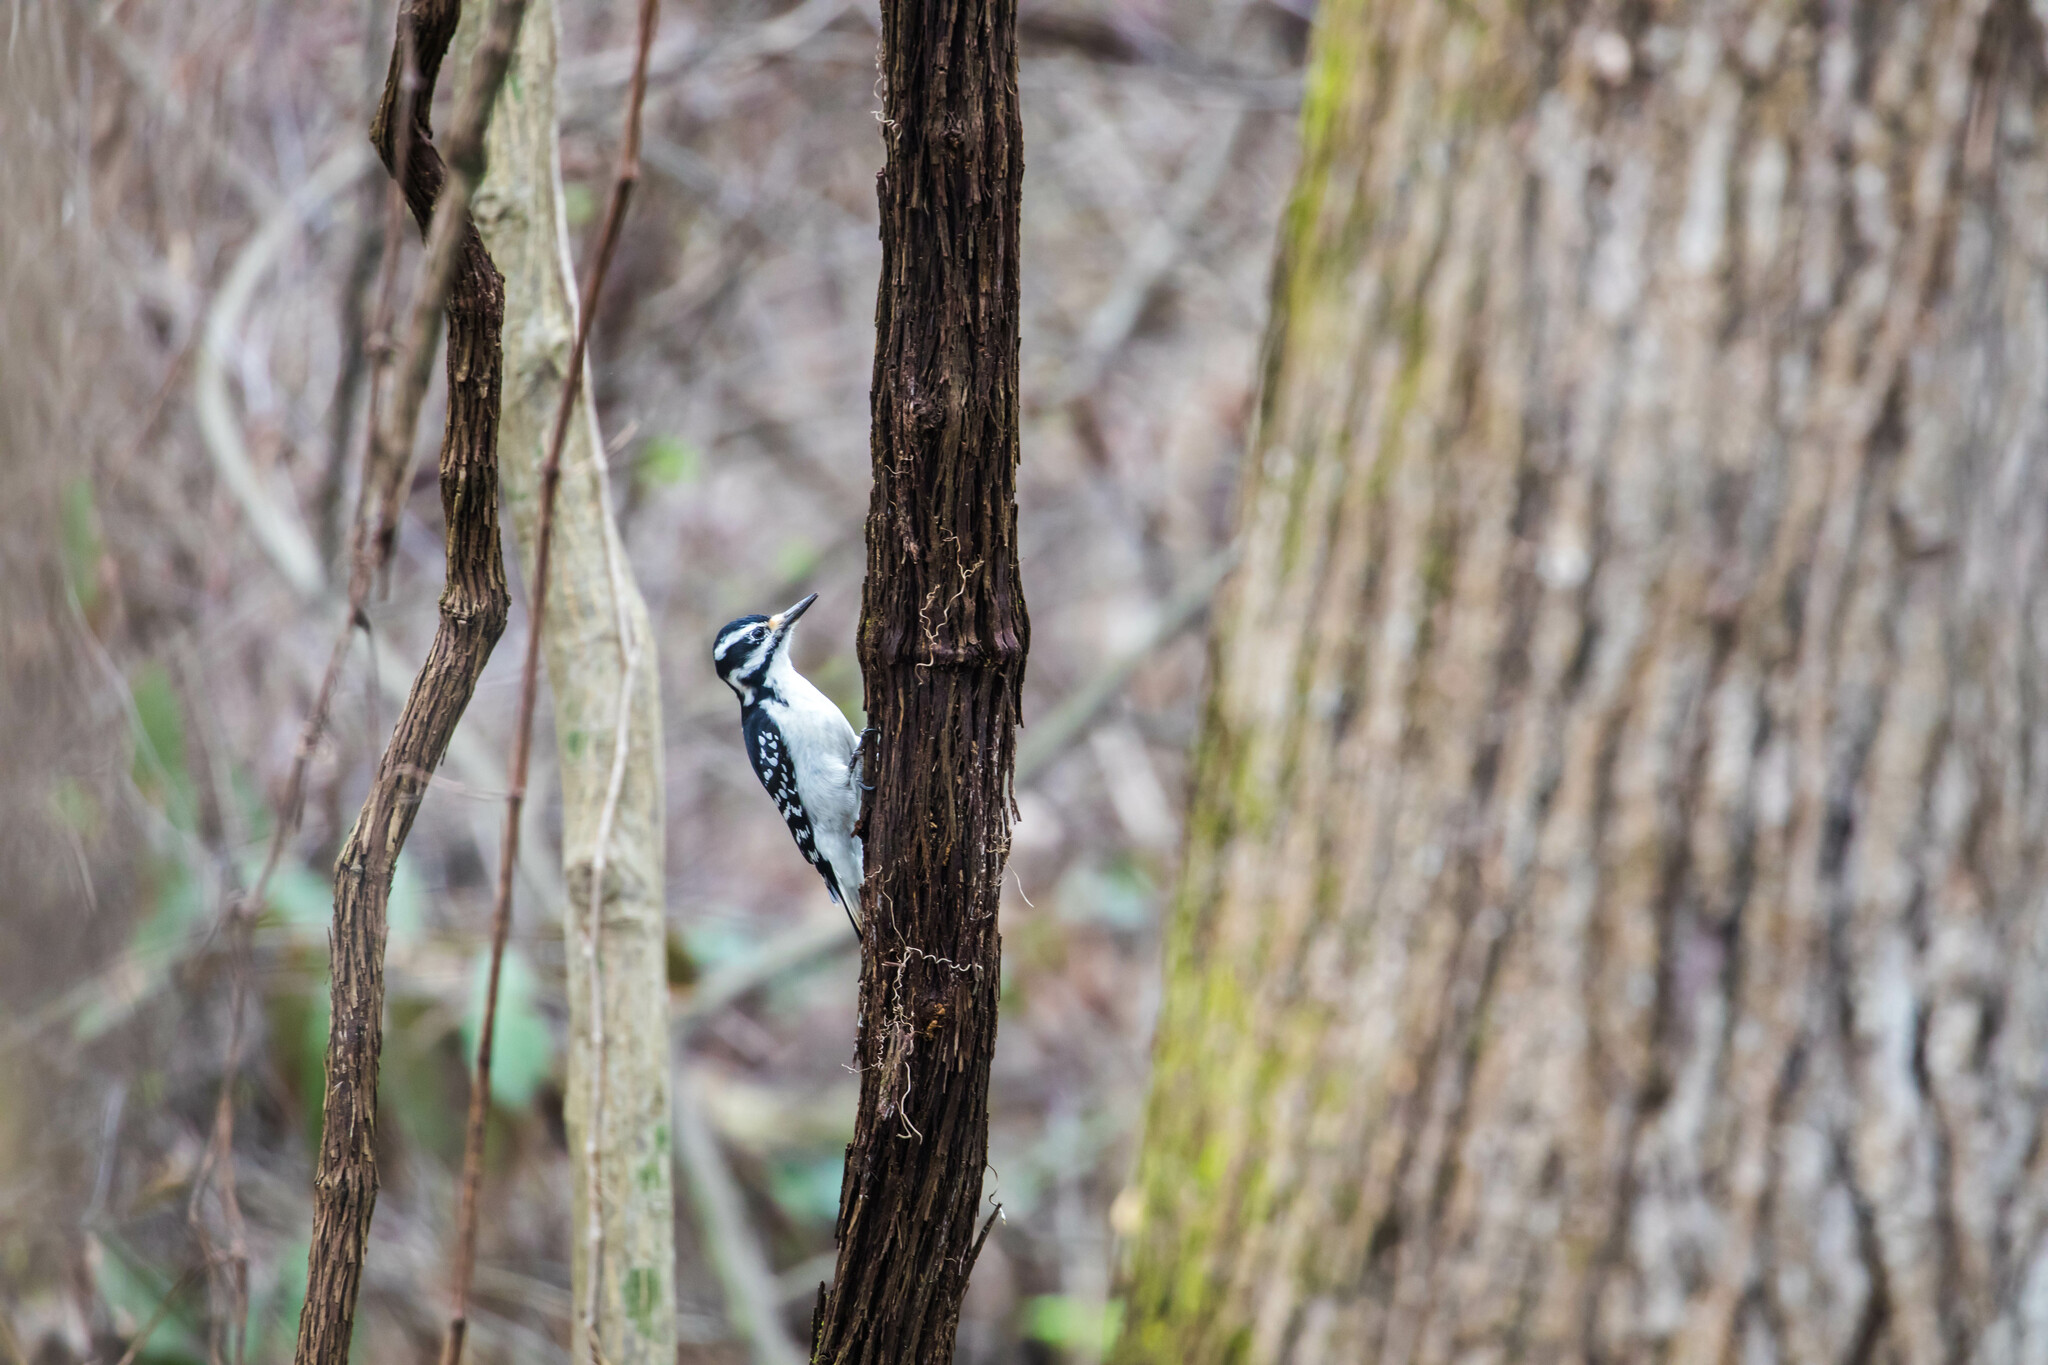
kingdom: Animalia
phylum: Chordata
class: Aves
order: Piciformes
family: Picidae
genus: Leuconotopicus
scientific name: Leuconotopicus villosus
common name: Hairy woodpecker
